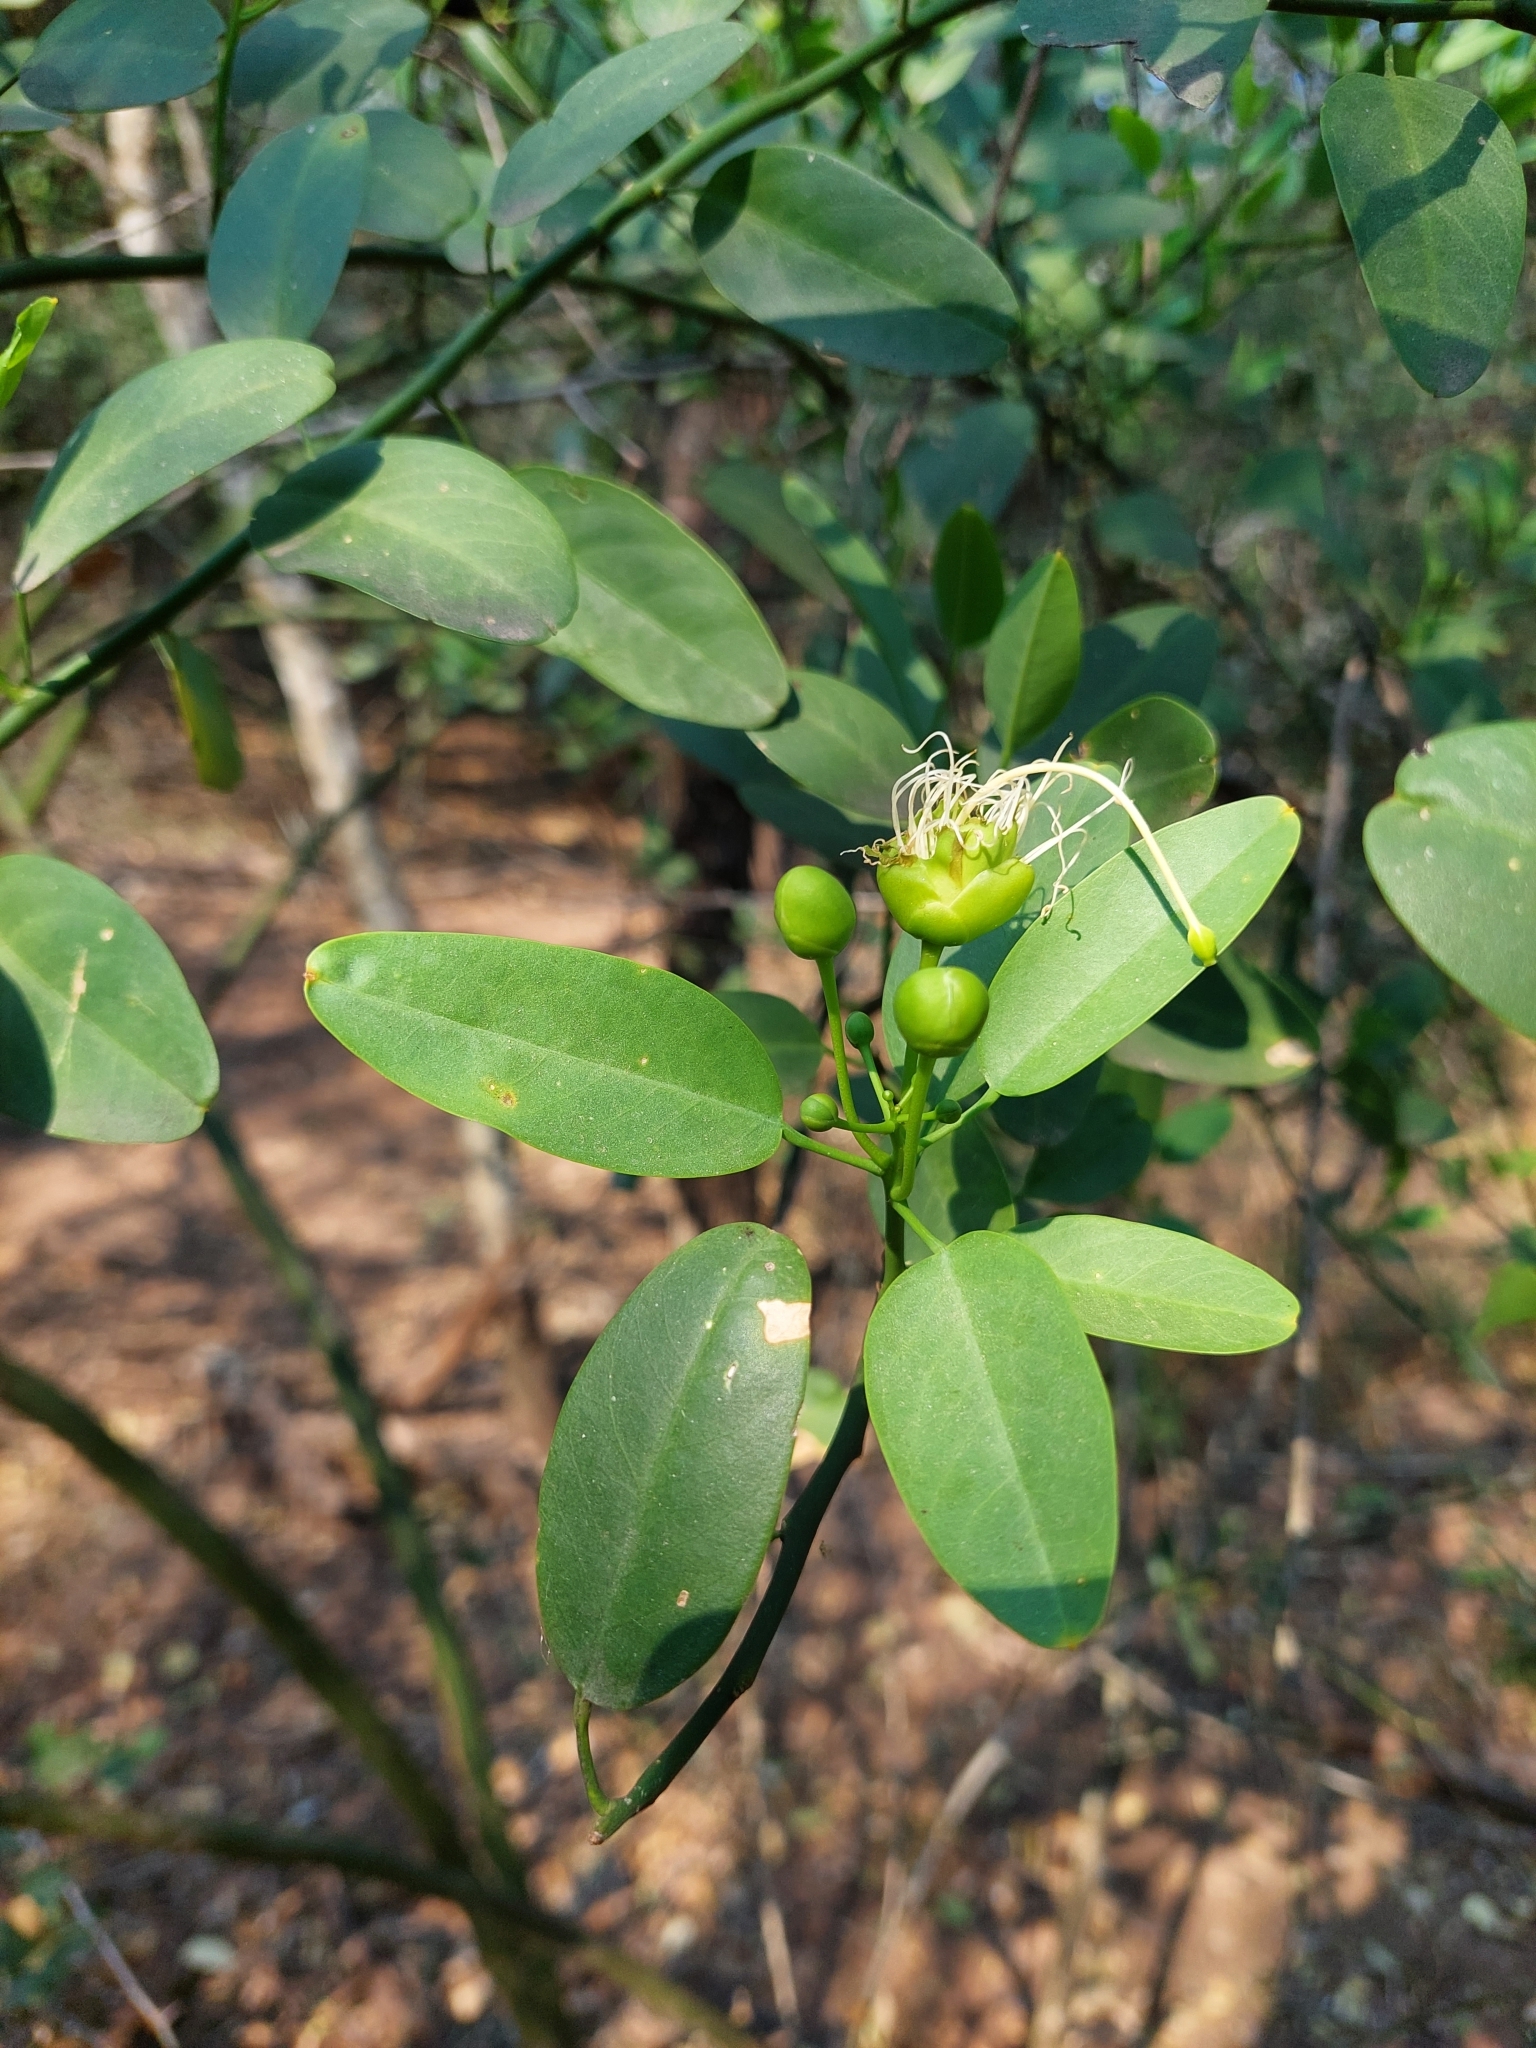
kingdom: Plantae
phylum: Tracheophyta
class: Magnoliopsida
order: Brassicales
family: Capparaceae
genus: Anisocapparis
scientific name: Anisocapparis speciosa
